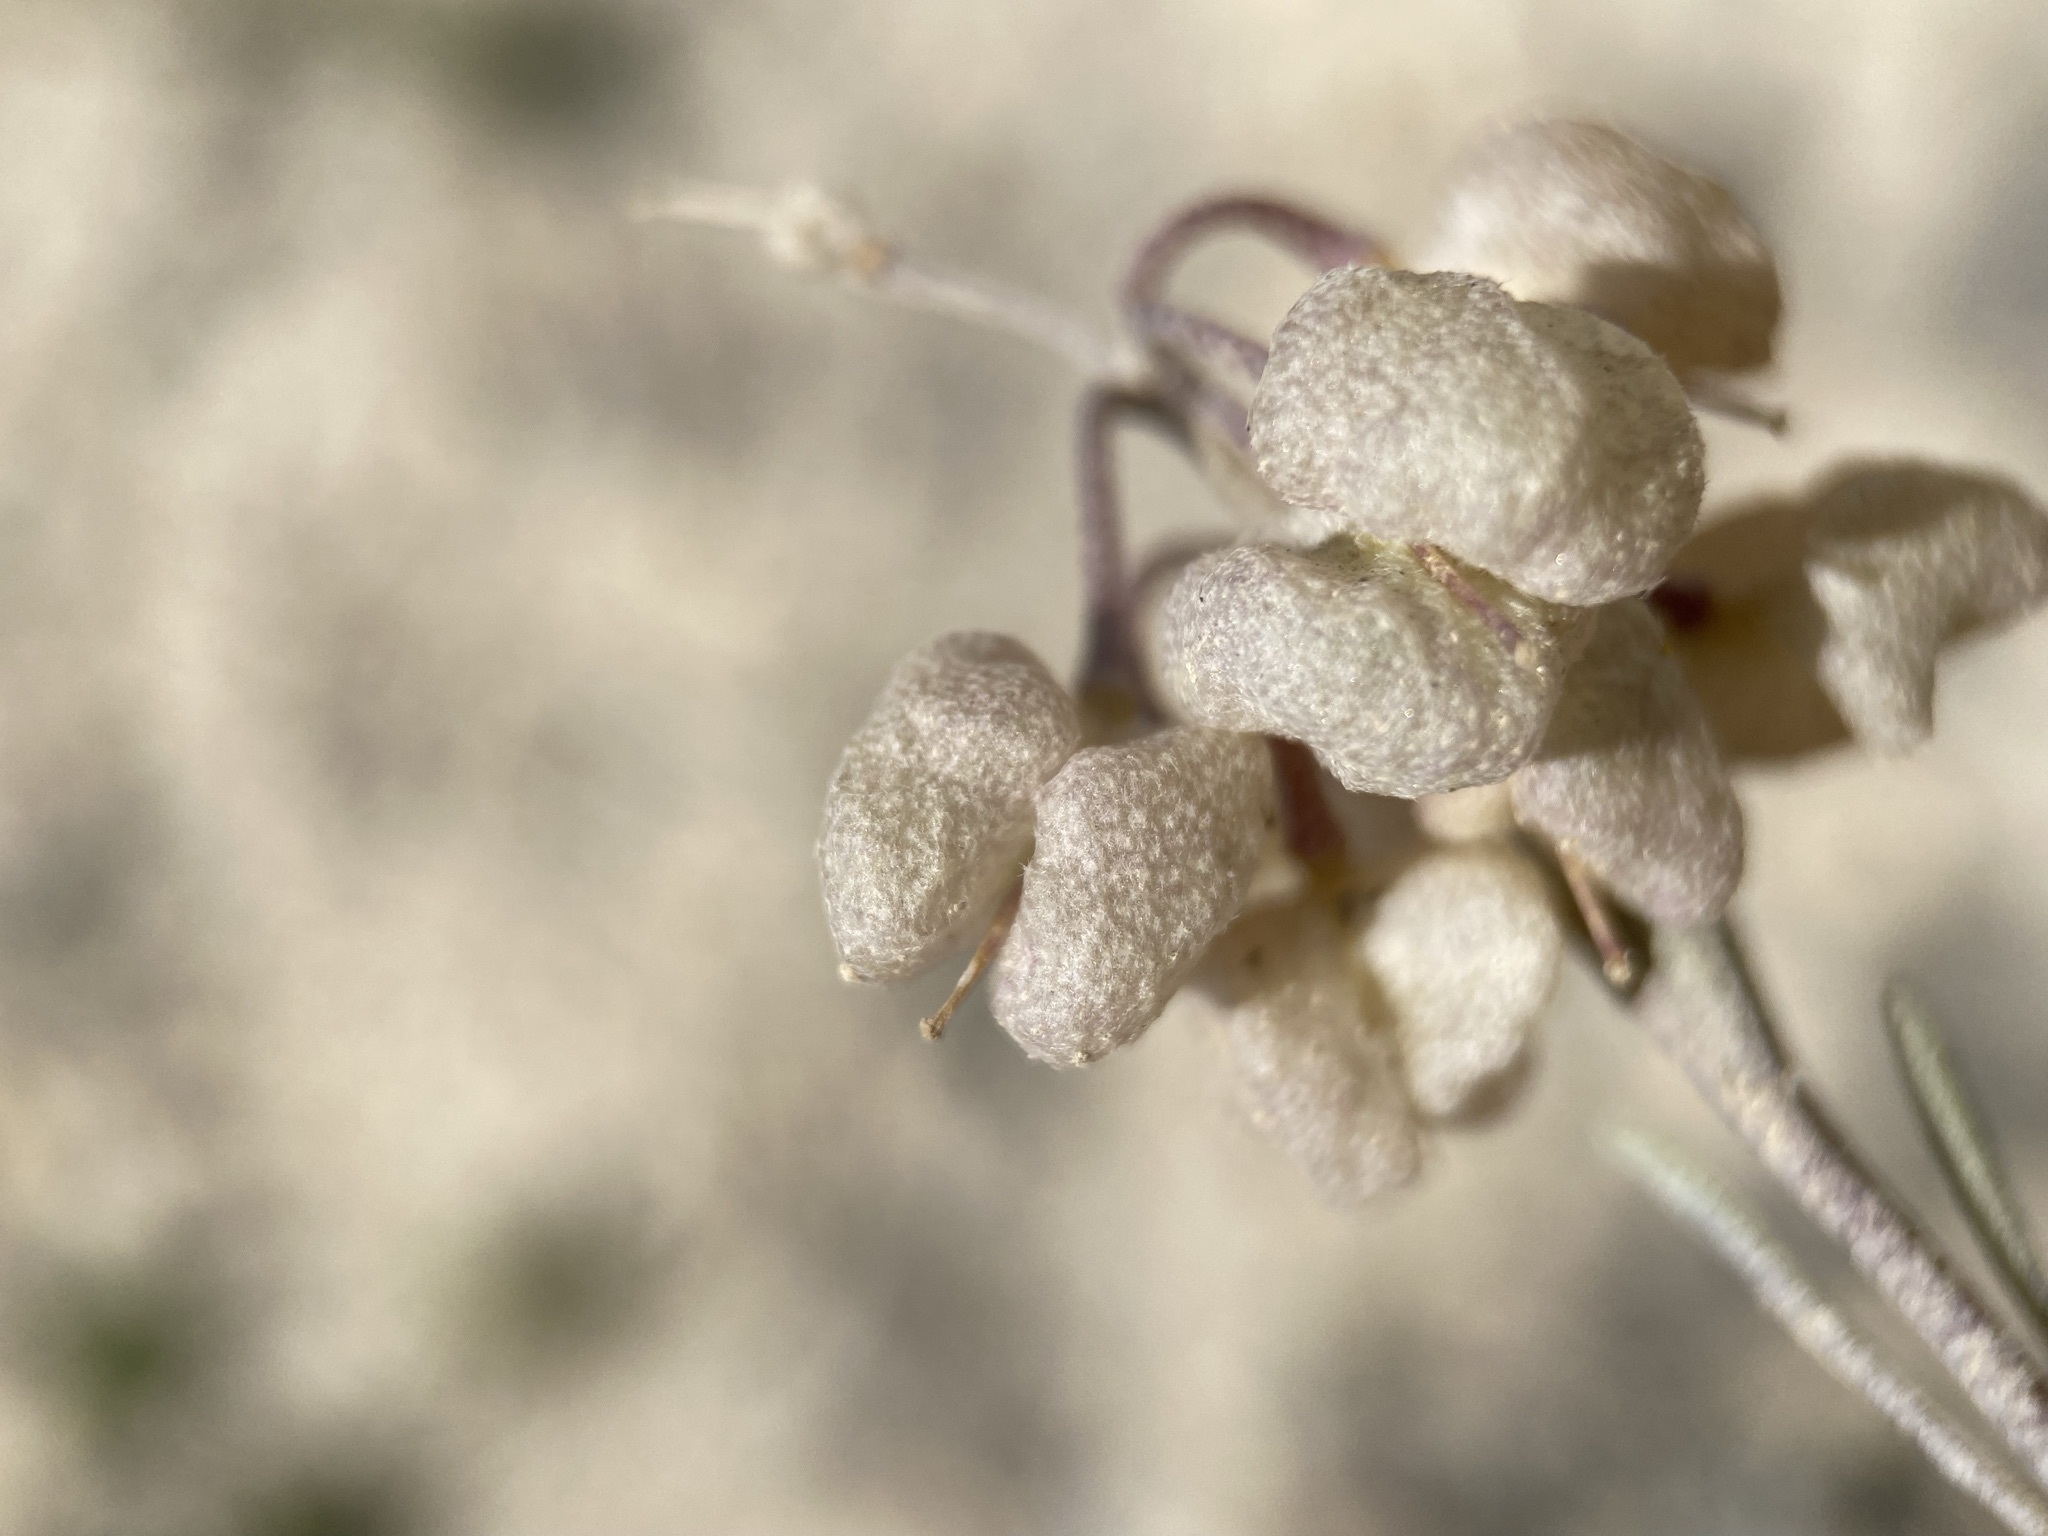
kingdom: Plantae
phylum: Tracheophyta
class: Magnoliopsida
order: Brassicales
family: Brassicaceae
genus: Physaria
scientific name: Physaria floribunda
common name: Point-tip twinpod
